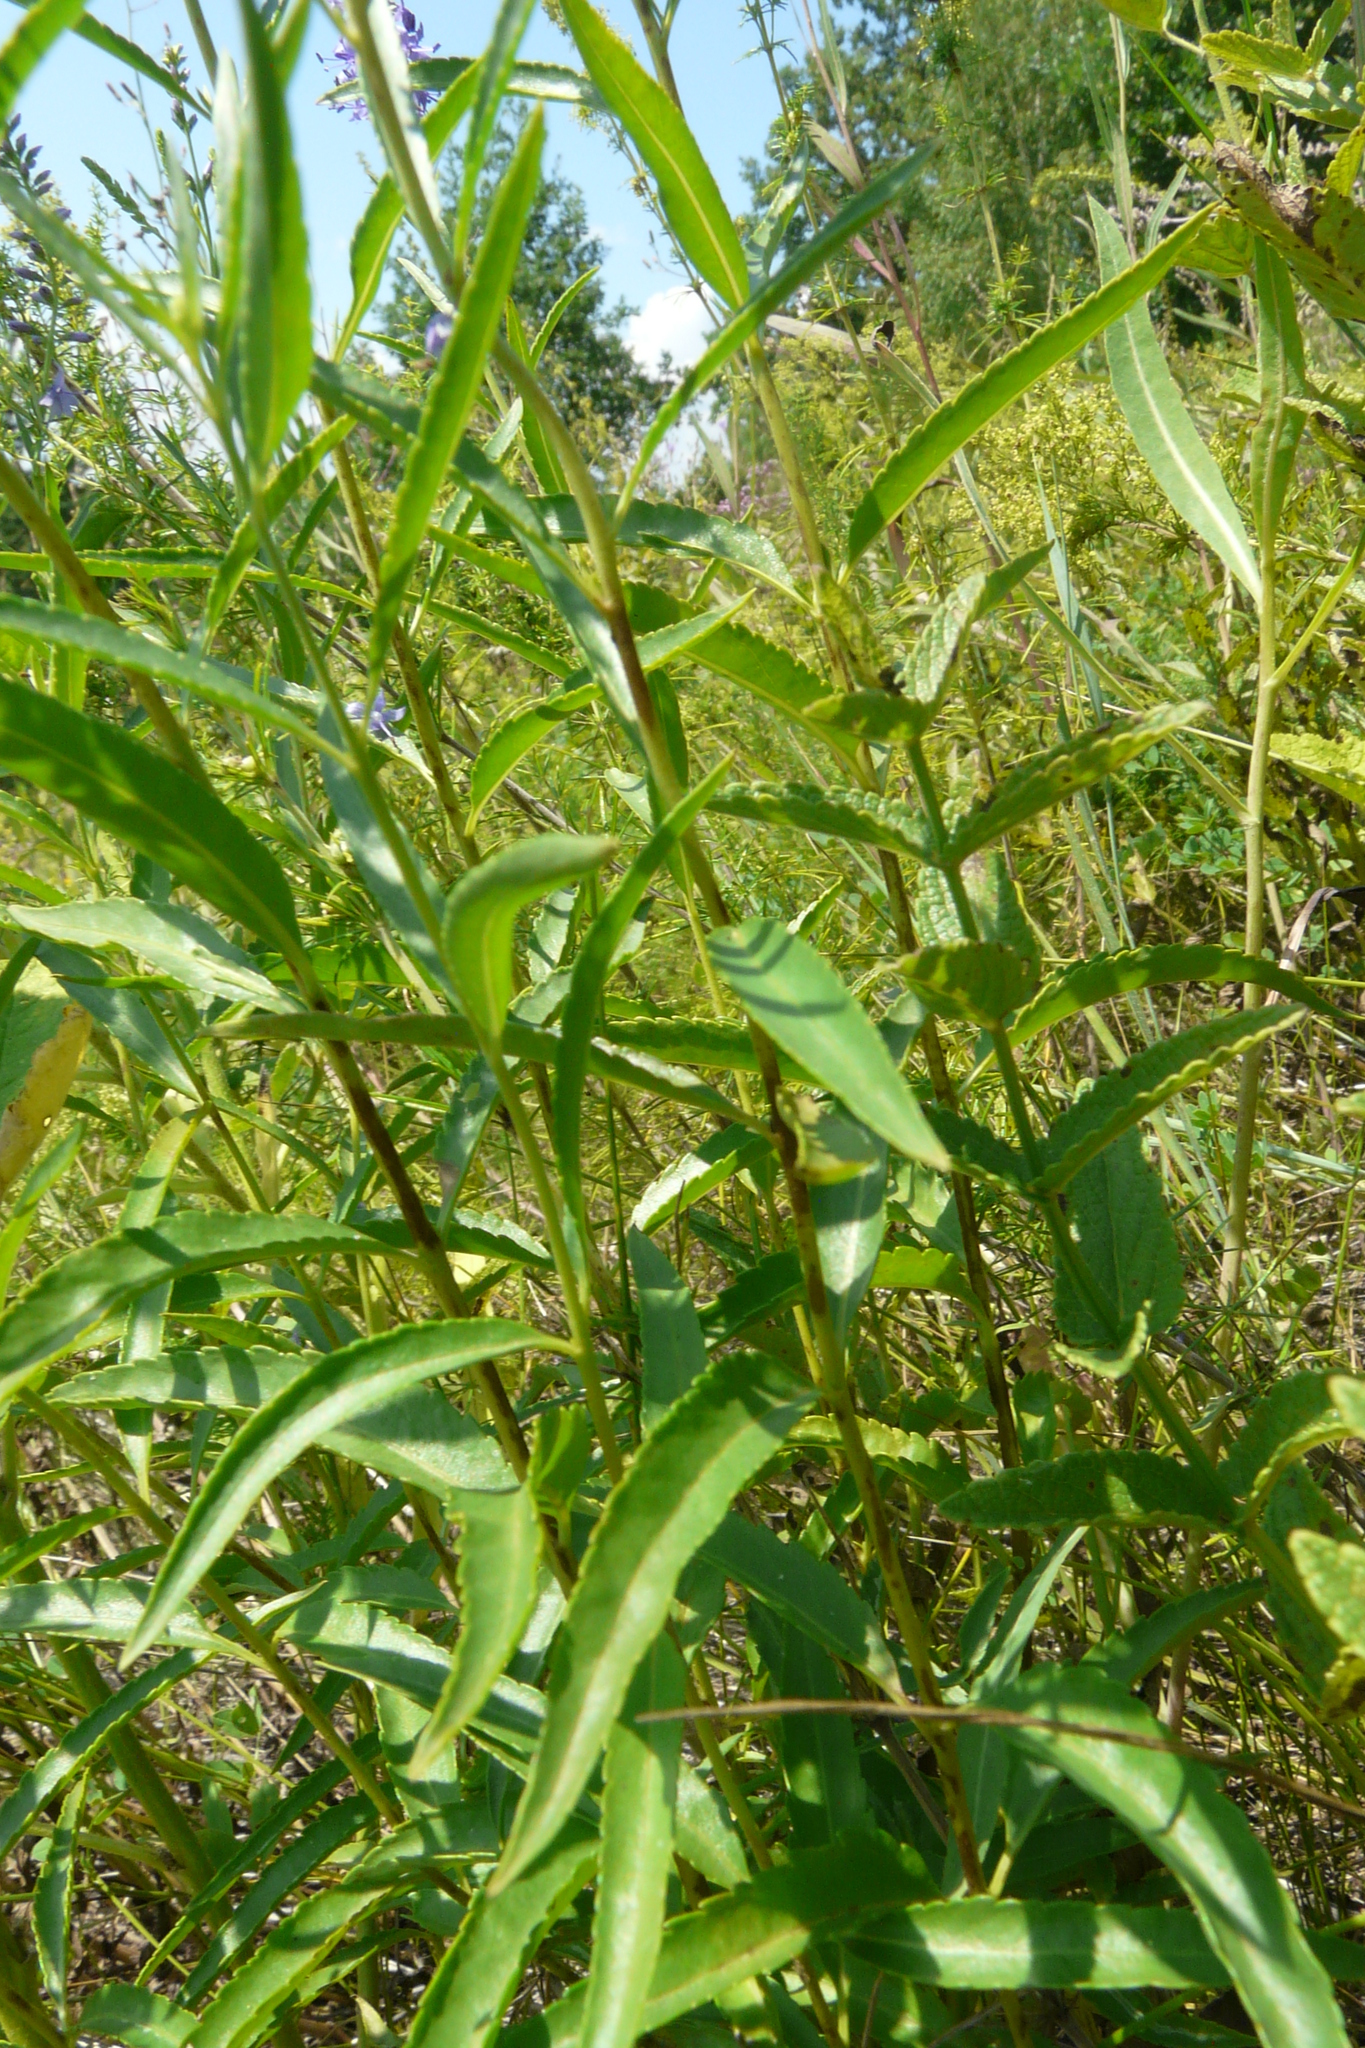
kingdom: Plantae
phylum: Tracheophyta
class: Magnoliopsida
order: Lamiales
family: Plantaginaceae
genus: Veronica
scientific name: Veronica spuria
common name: Bastard speedwell
